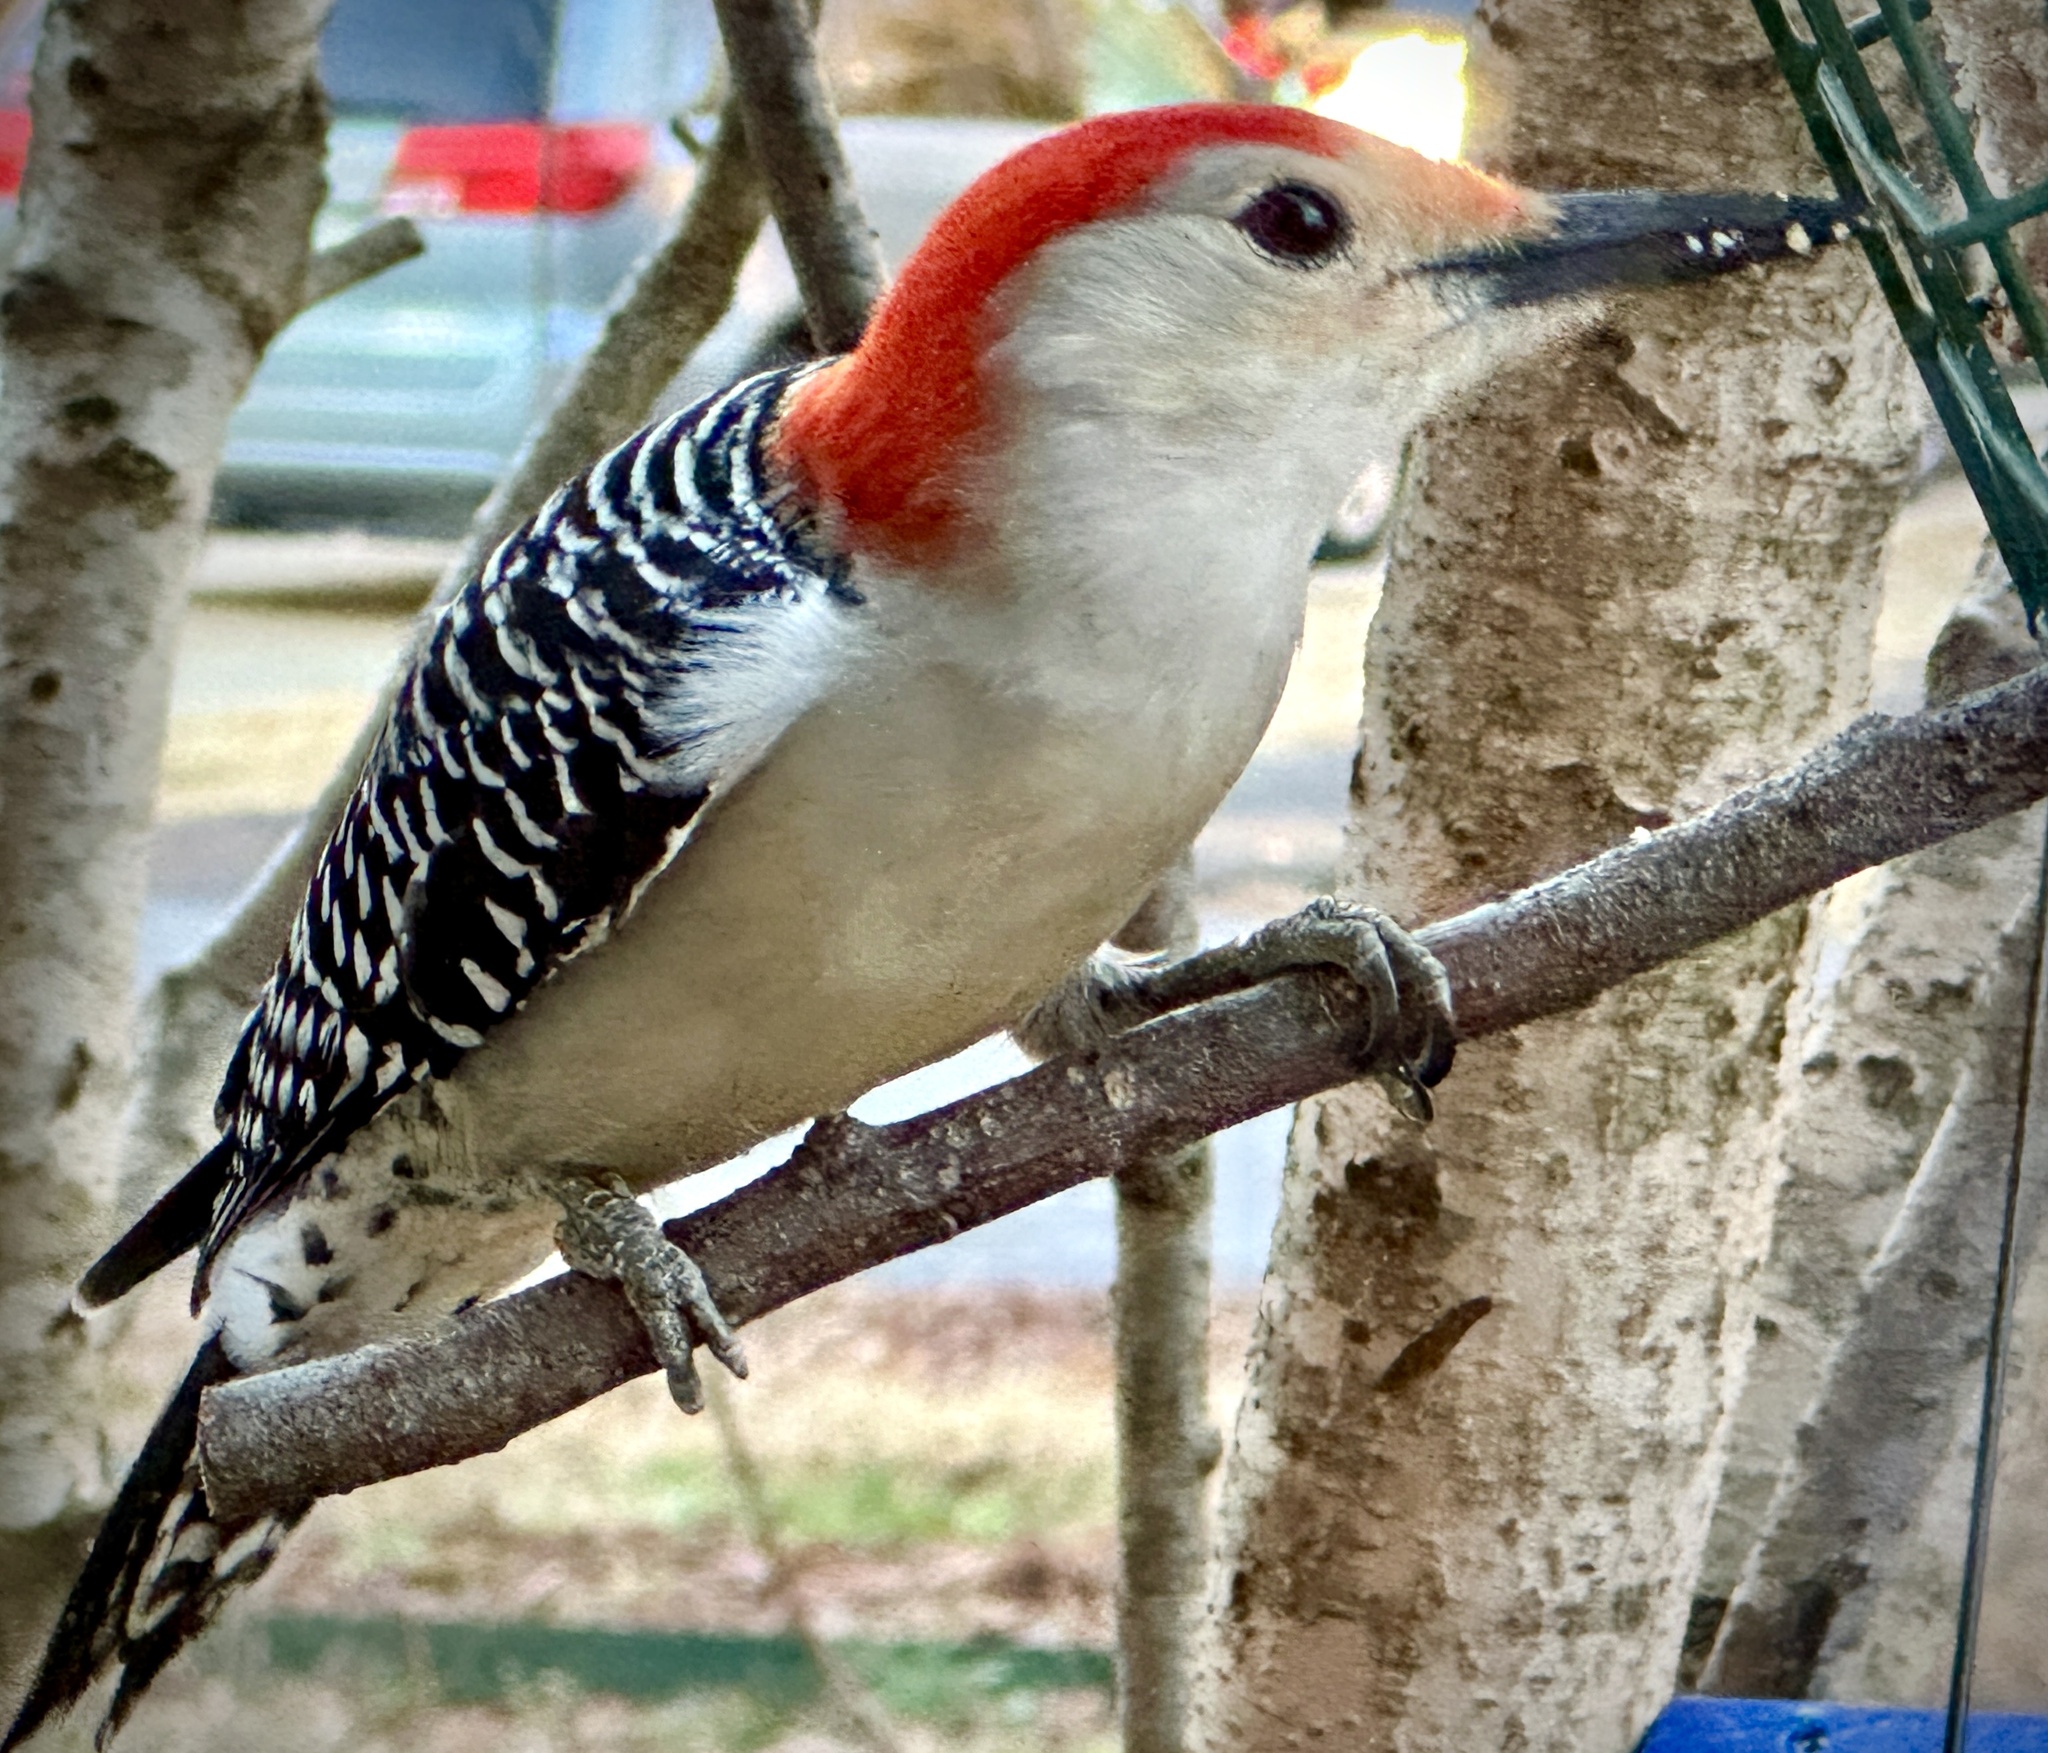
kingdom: Animalia
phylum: Chordata
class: Aves
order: Piciformes
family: Picidae
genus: Melanerpes
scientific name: Melanerpes carolinus
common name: Red-bellied woodpecker
